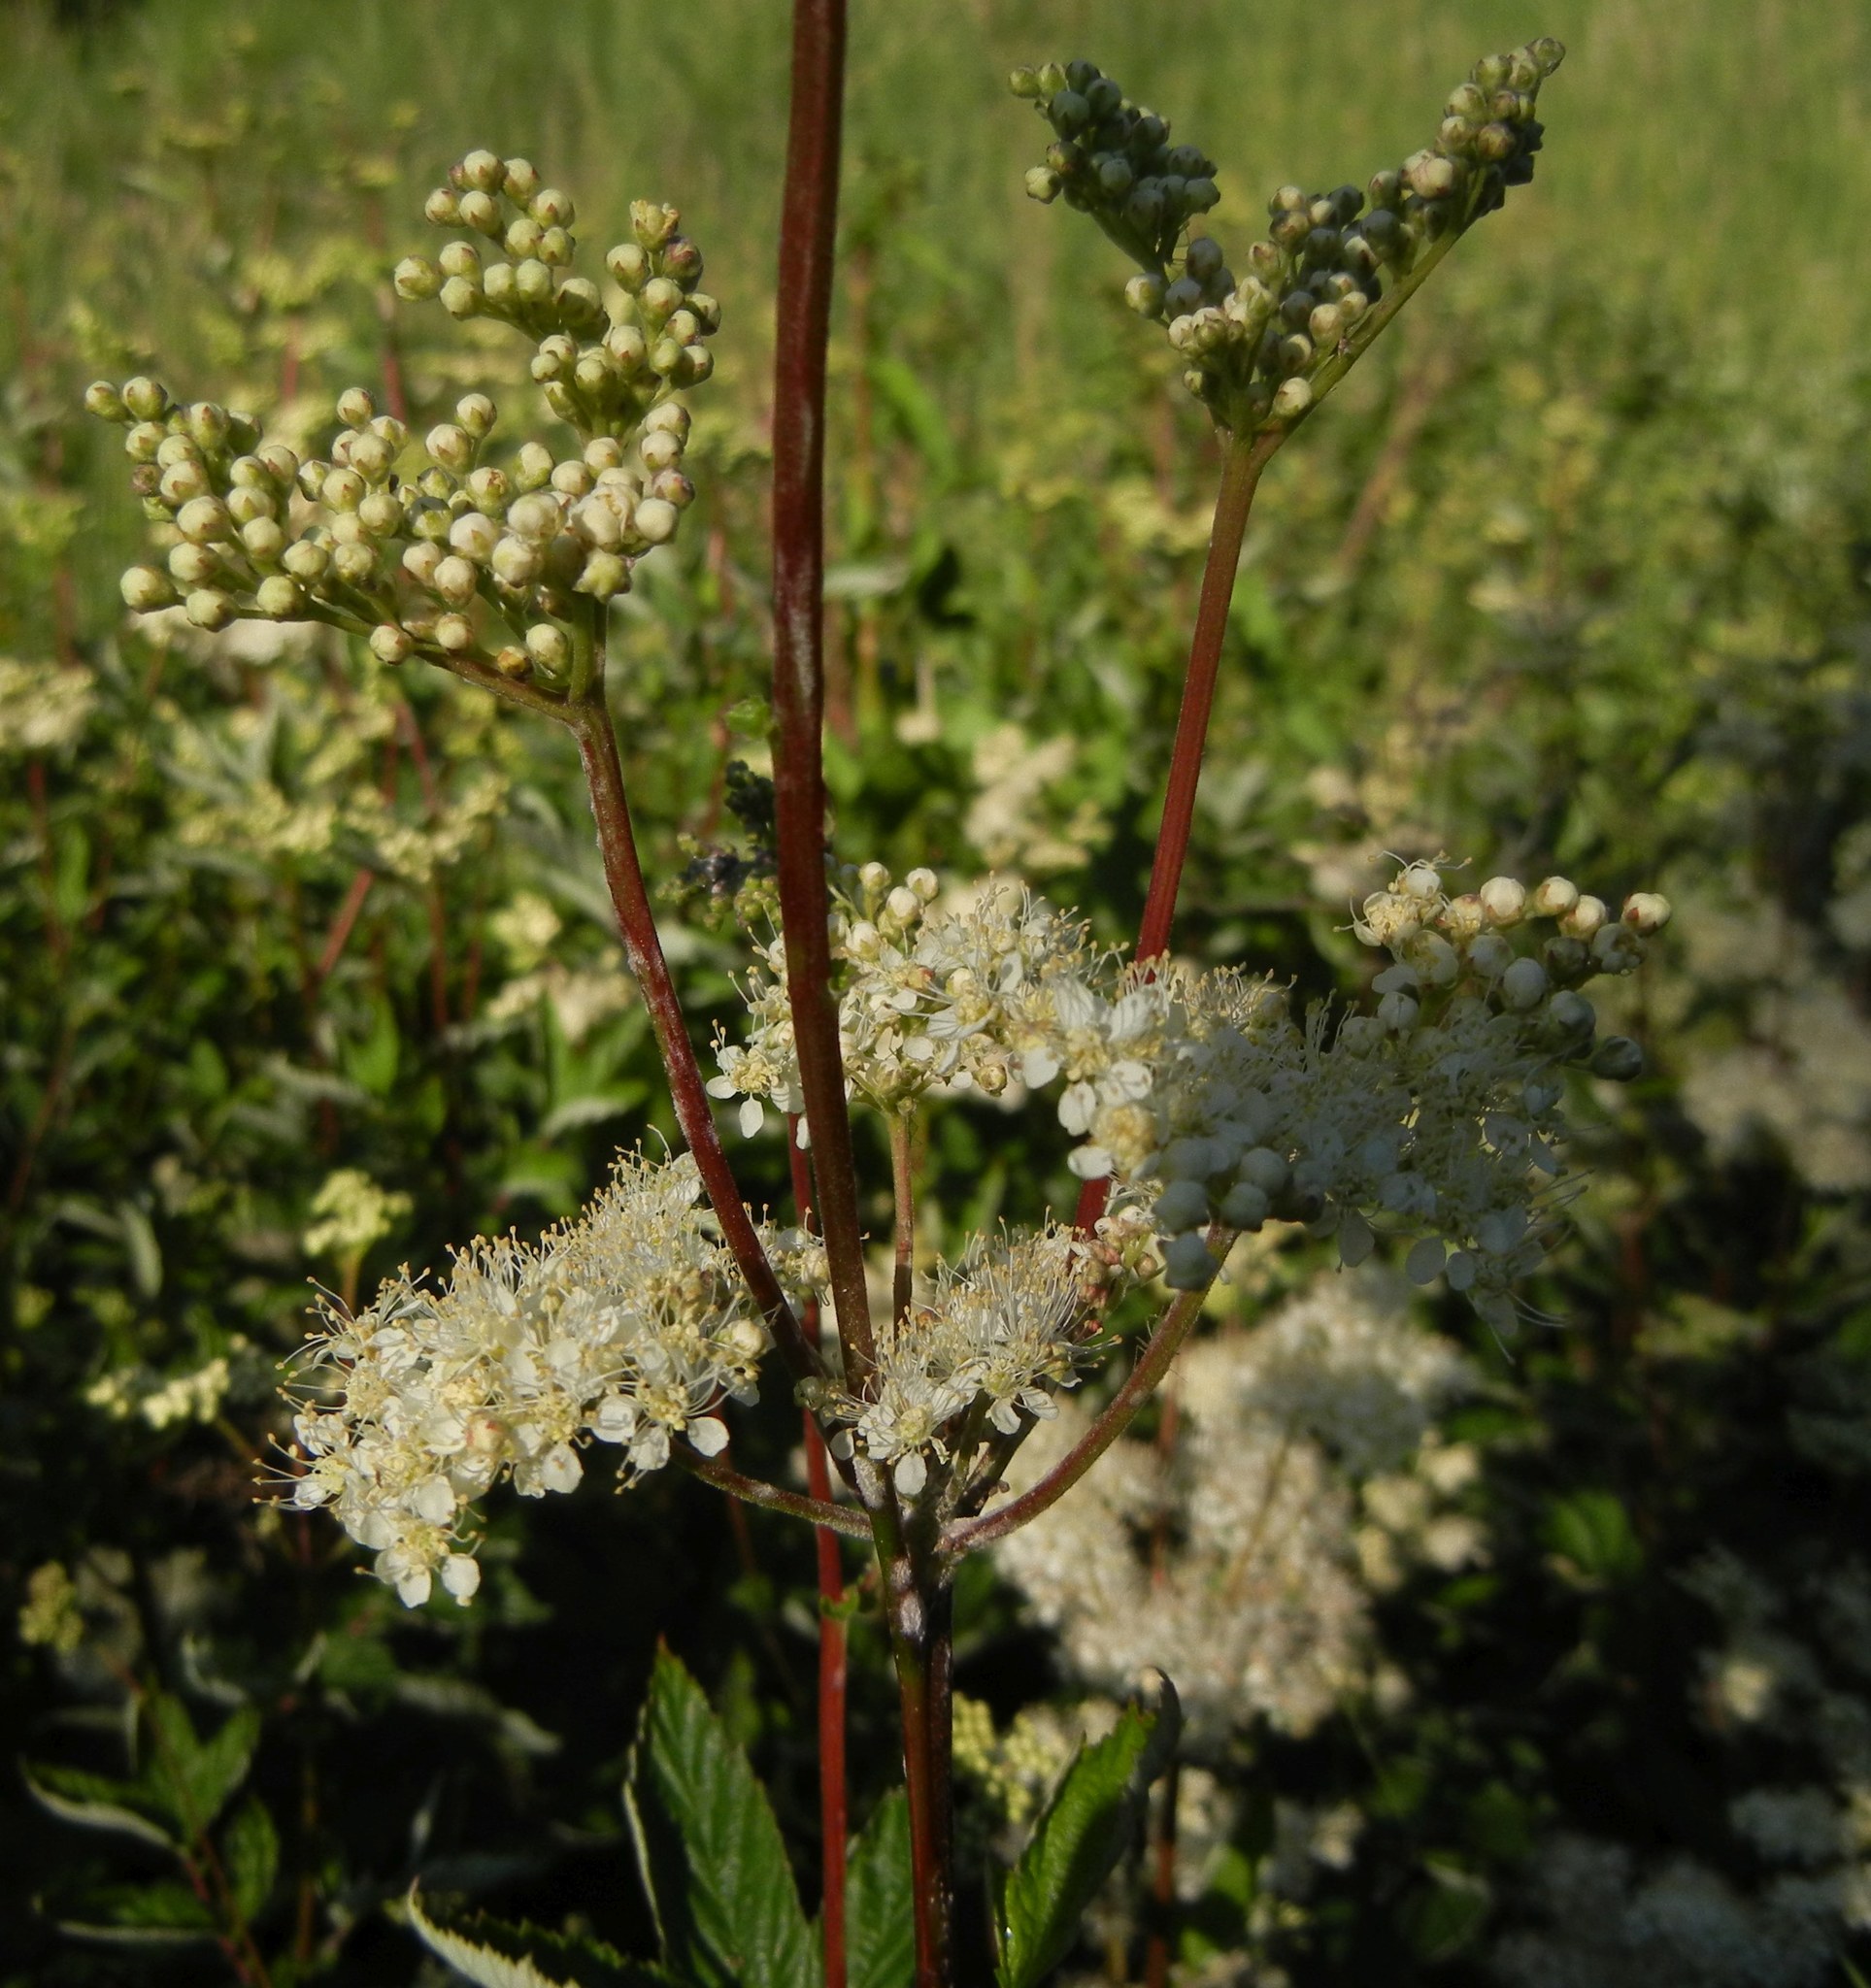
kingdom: Plantae
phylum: Tracheophyta
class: Magnoliopsida
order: Rosales
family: Rosaceae
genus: Filipendula
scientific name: Filipendula ulmaria
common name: Meadowsweet
